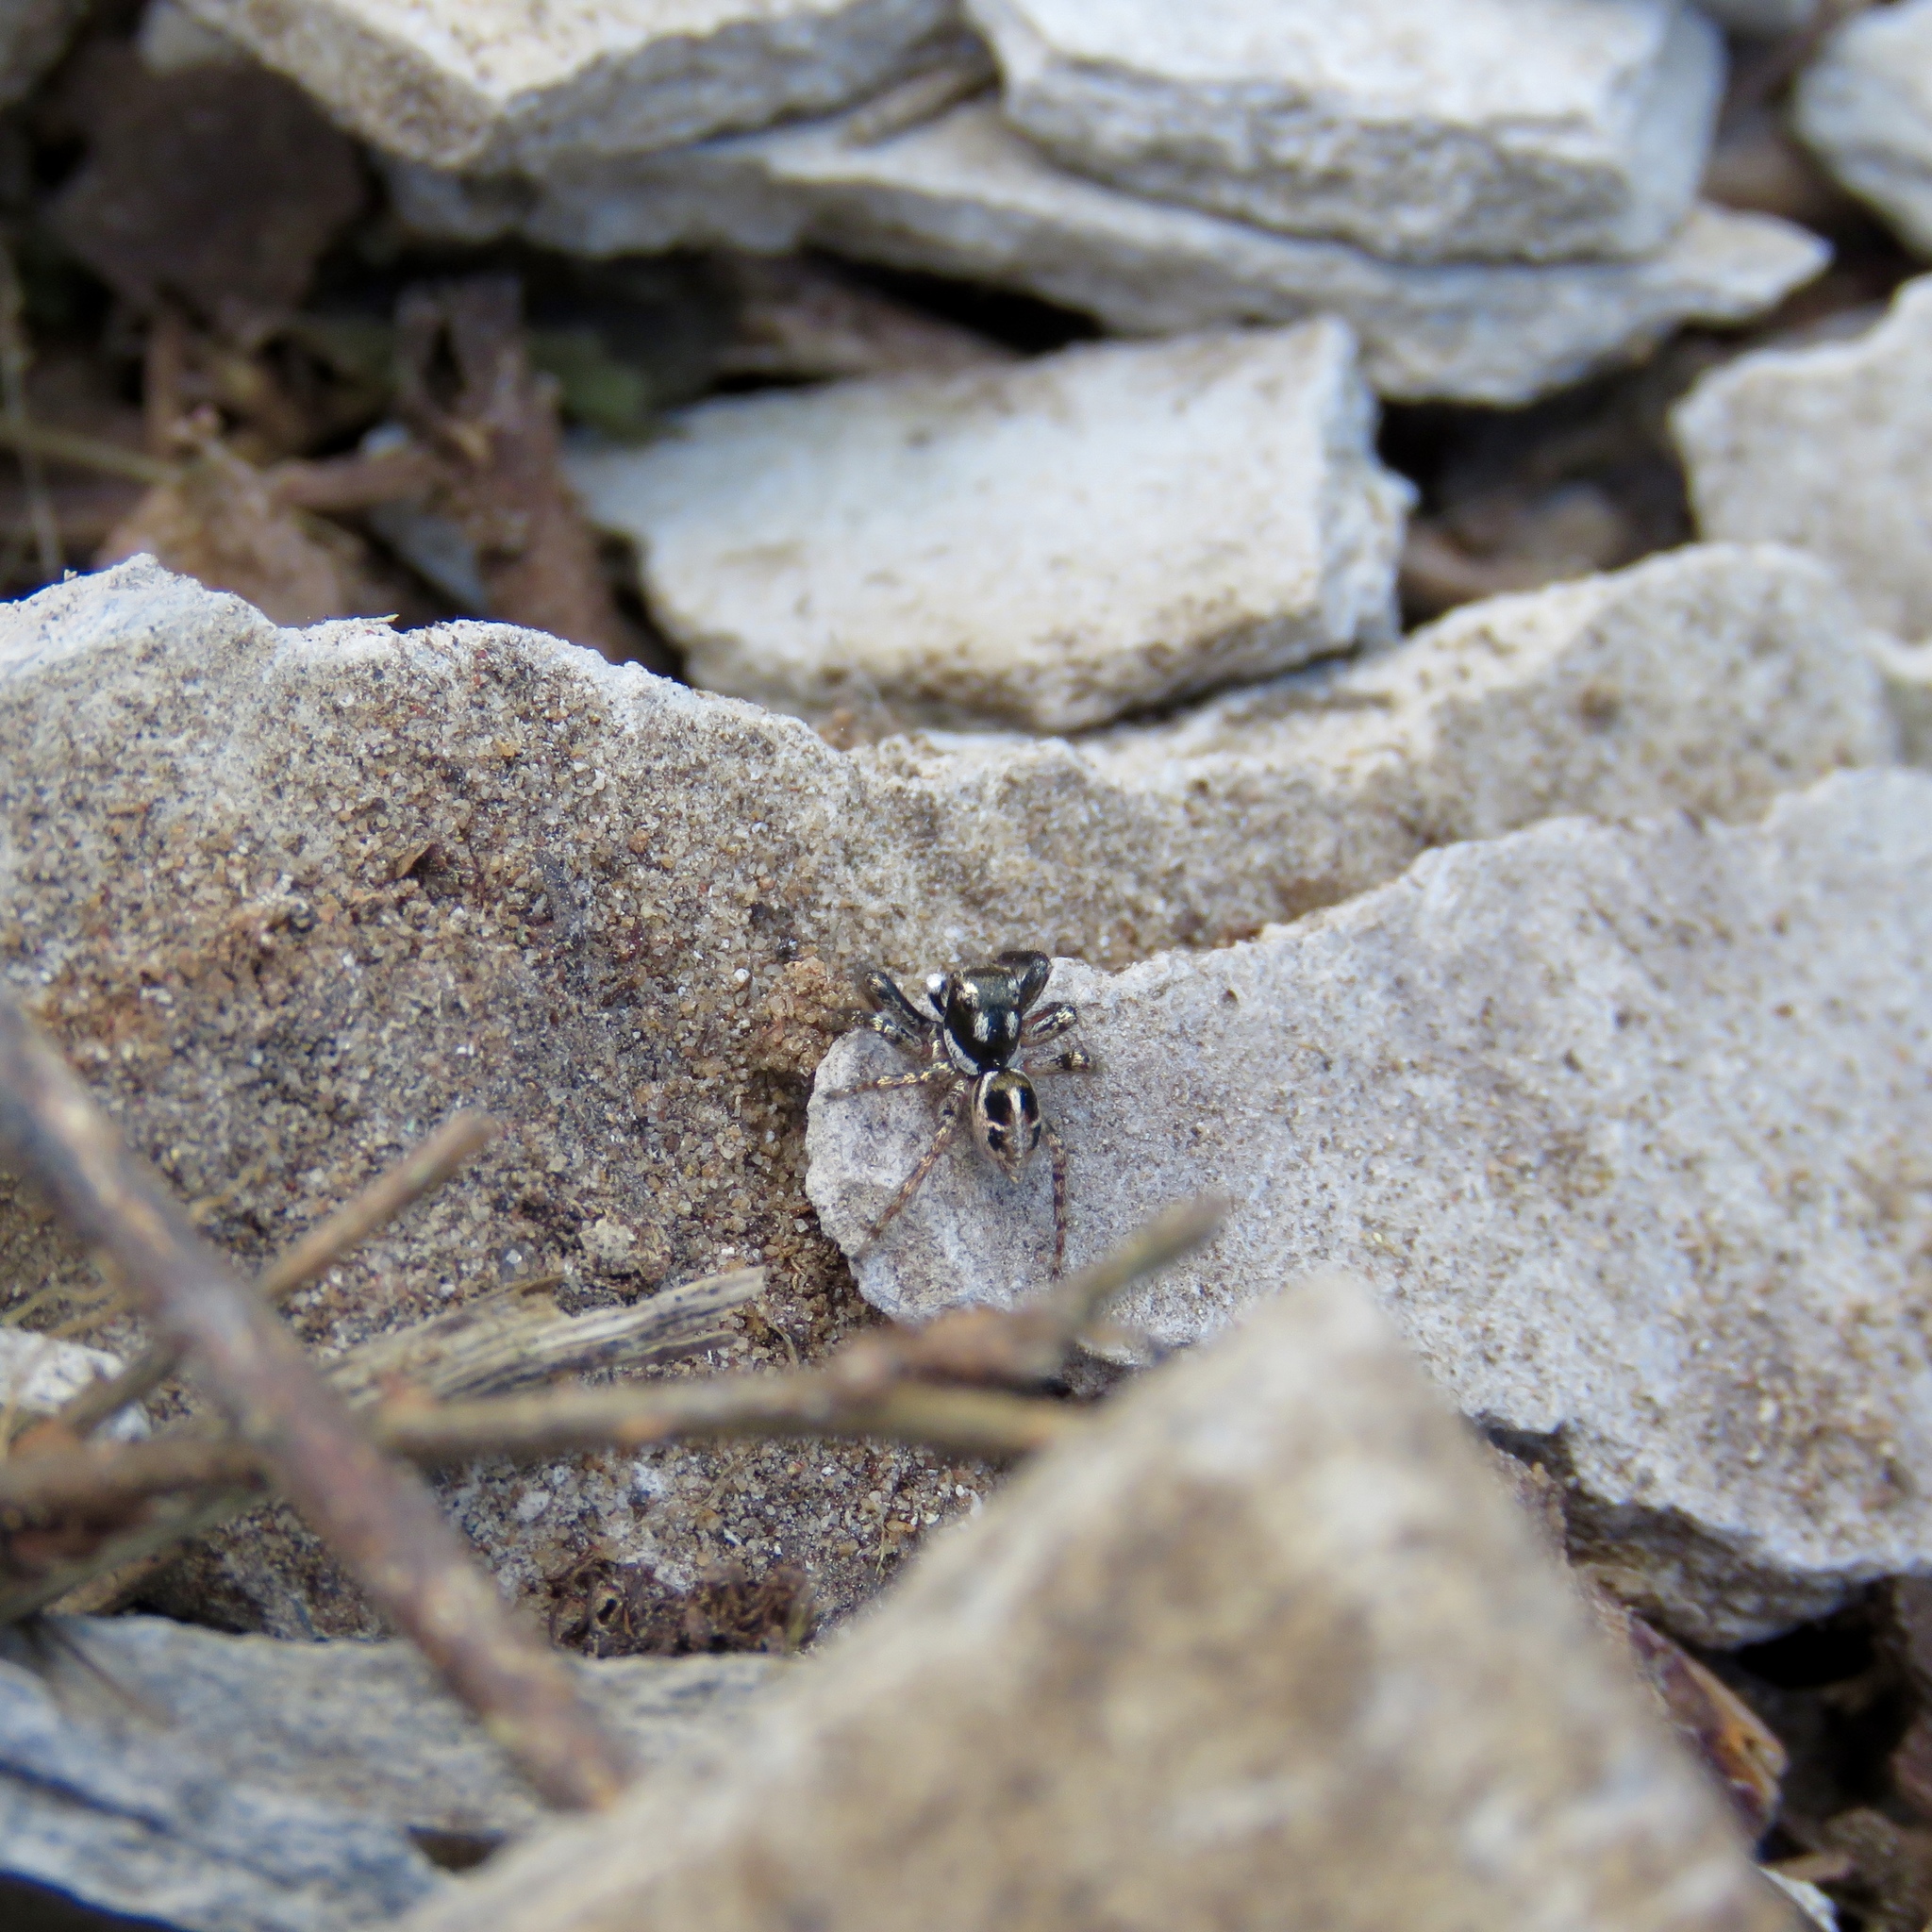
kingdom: Animalia
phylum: Arthropoda
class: Arachnida
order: Araneae
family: Salticidae
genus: Anasaitis
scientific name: Anasaitis canosa
